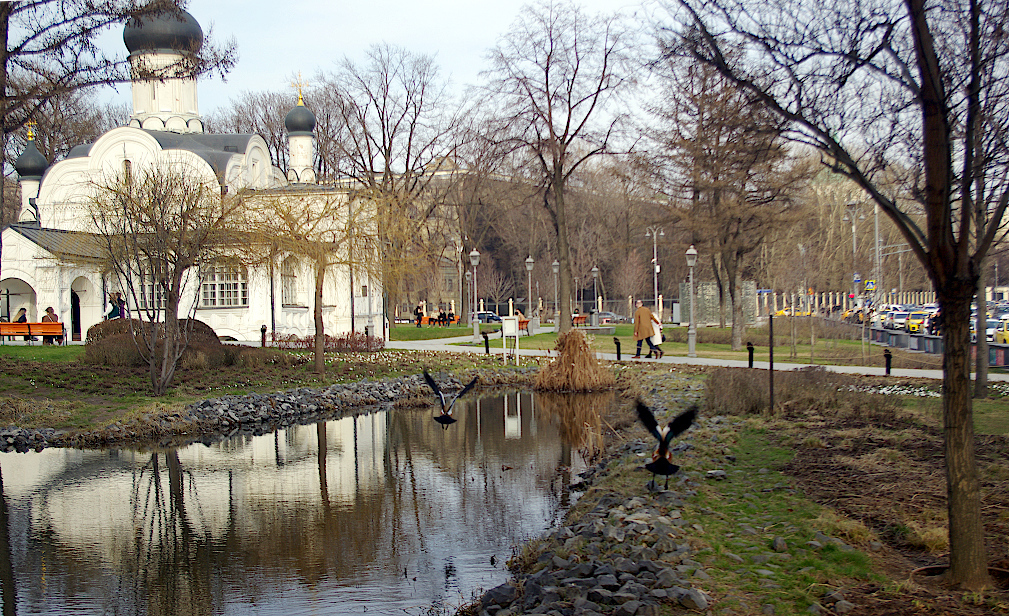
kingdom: Animalia
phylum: Chordata
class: Aves
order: Anseriformes
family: Anatidae
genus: Tadorna
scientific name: Tadorna ferruginea
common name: Ruddy shelduck
